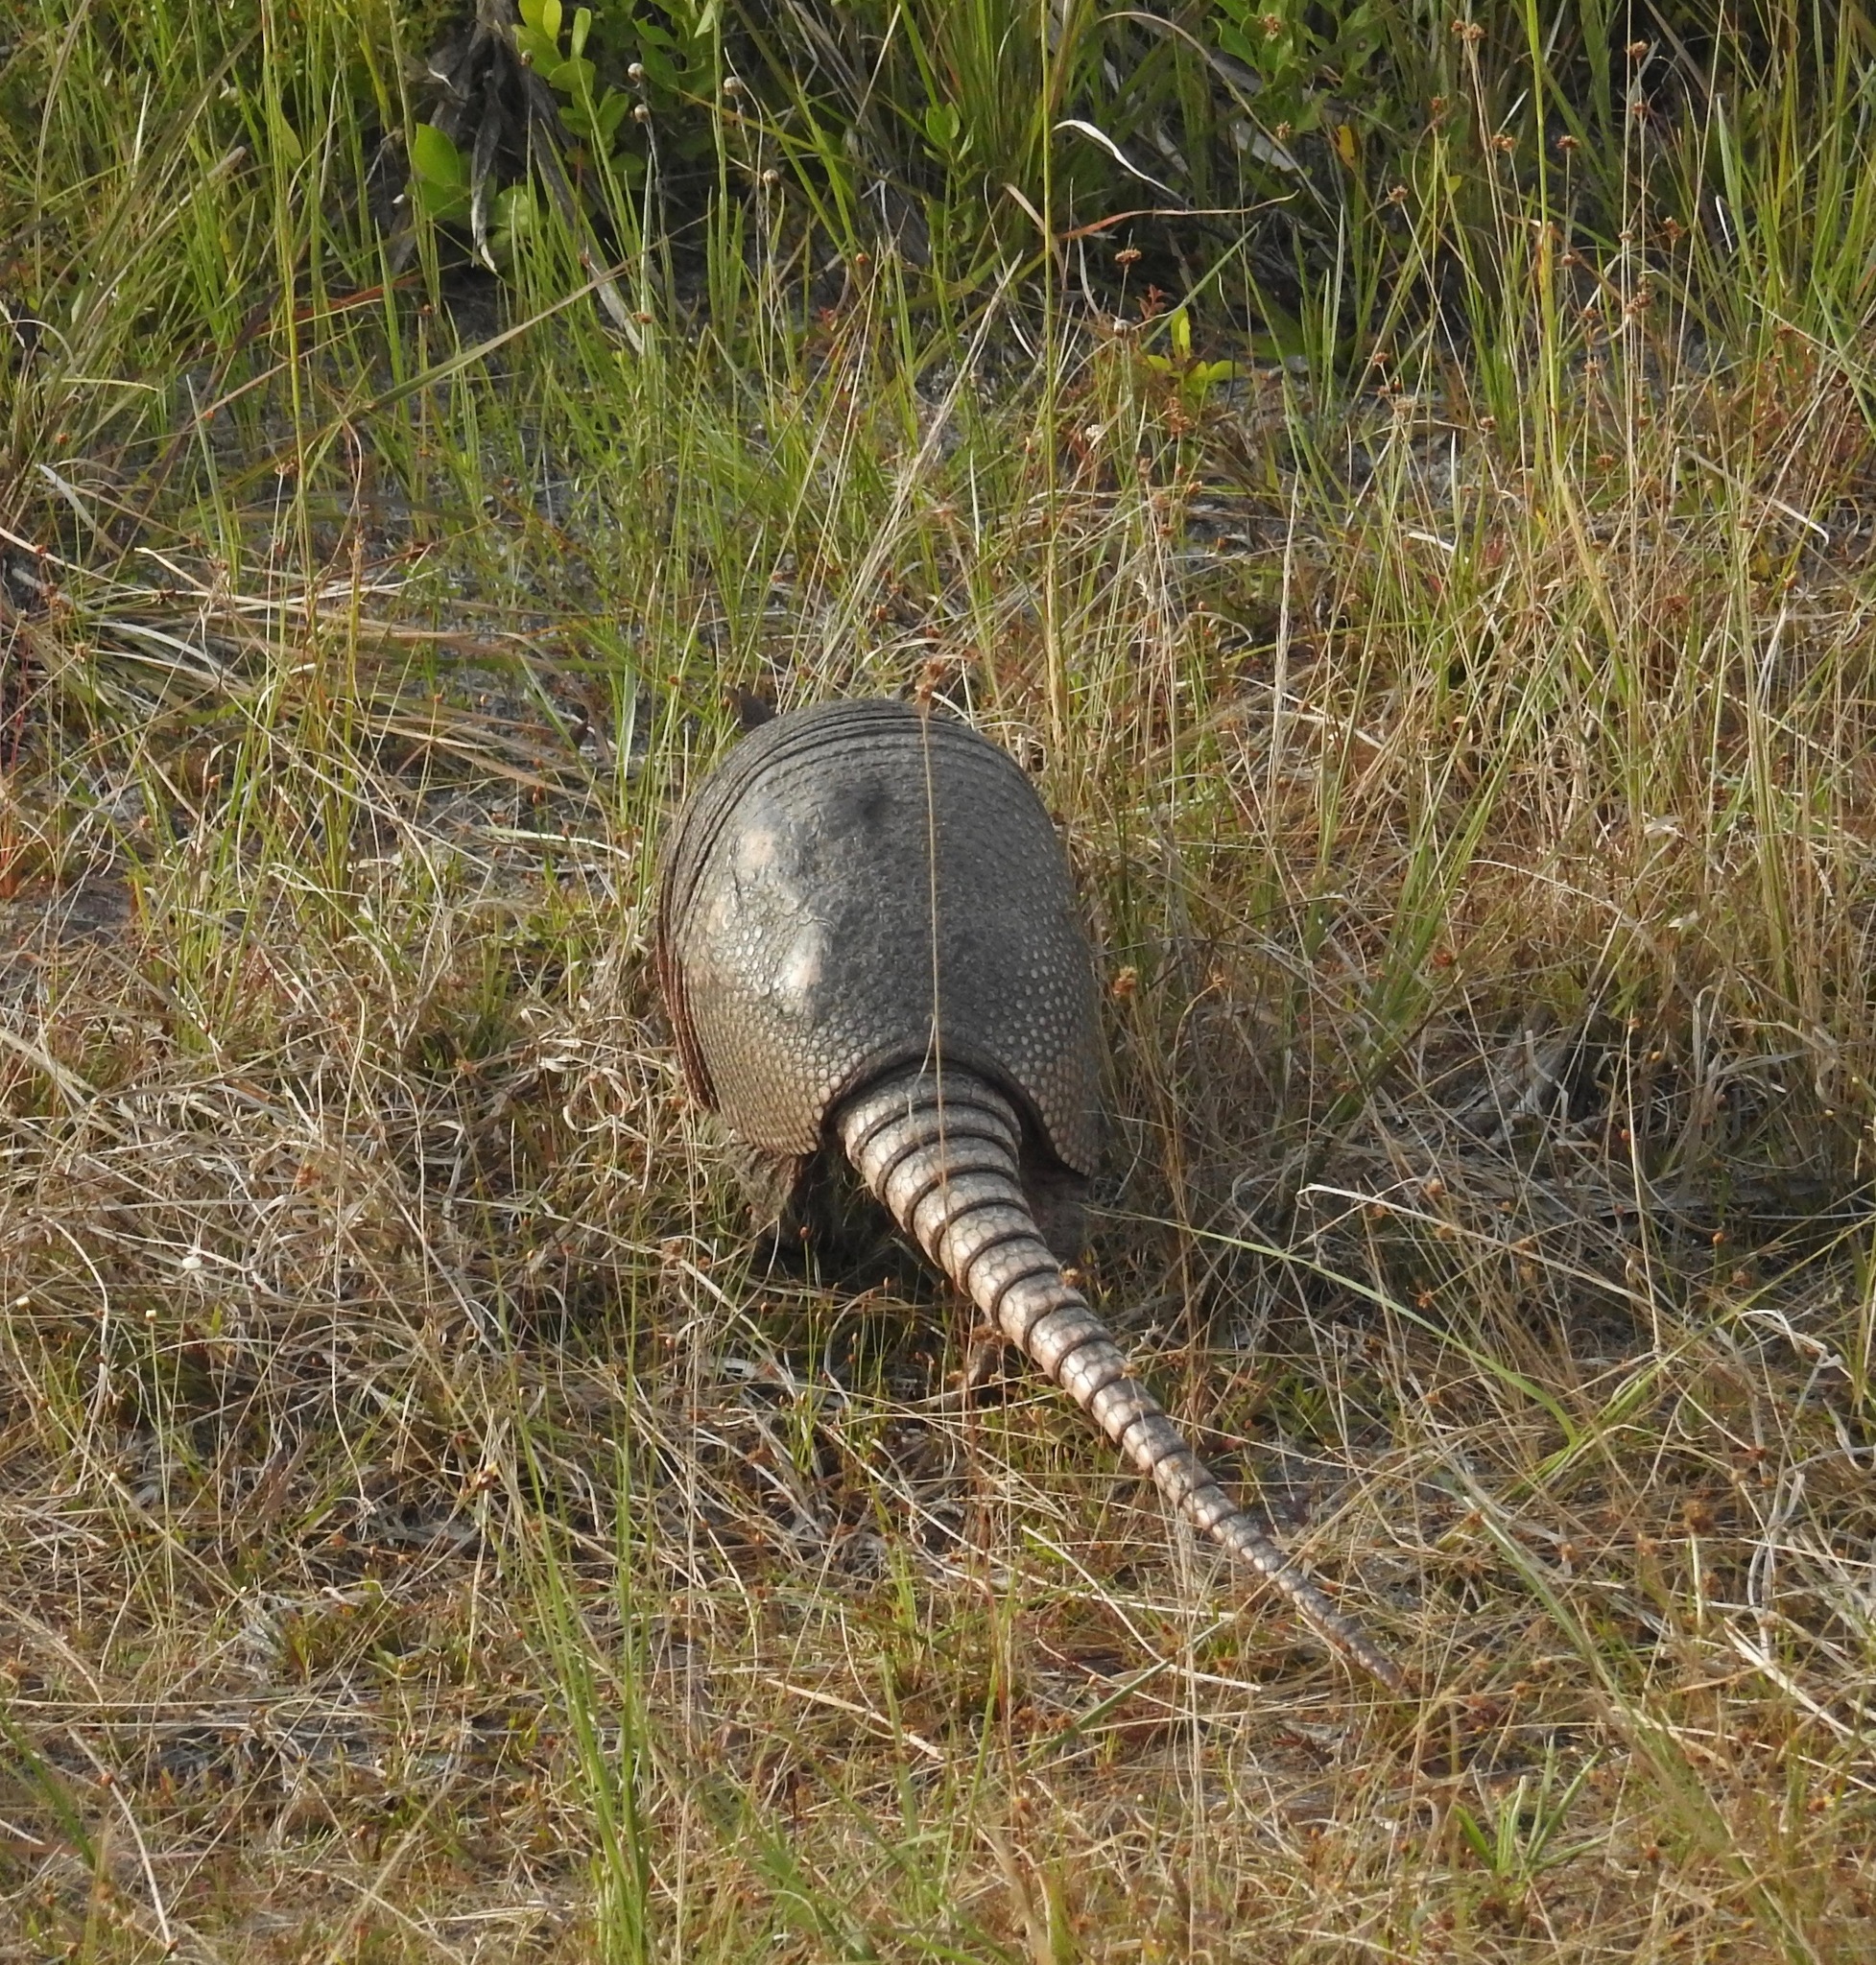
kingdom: Animalia
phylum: Chordata
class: Mammalia
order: Cingulata
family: Dasypodidae
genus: Dasypus
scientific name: Dasypus novemcinctus
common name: Nine-banded armadillo
